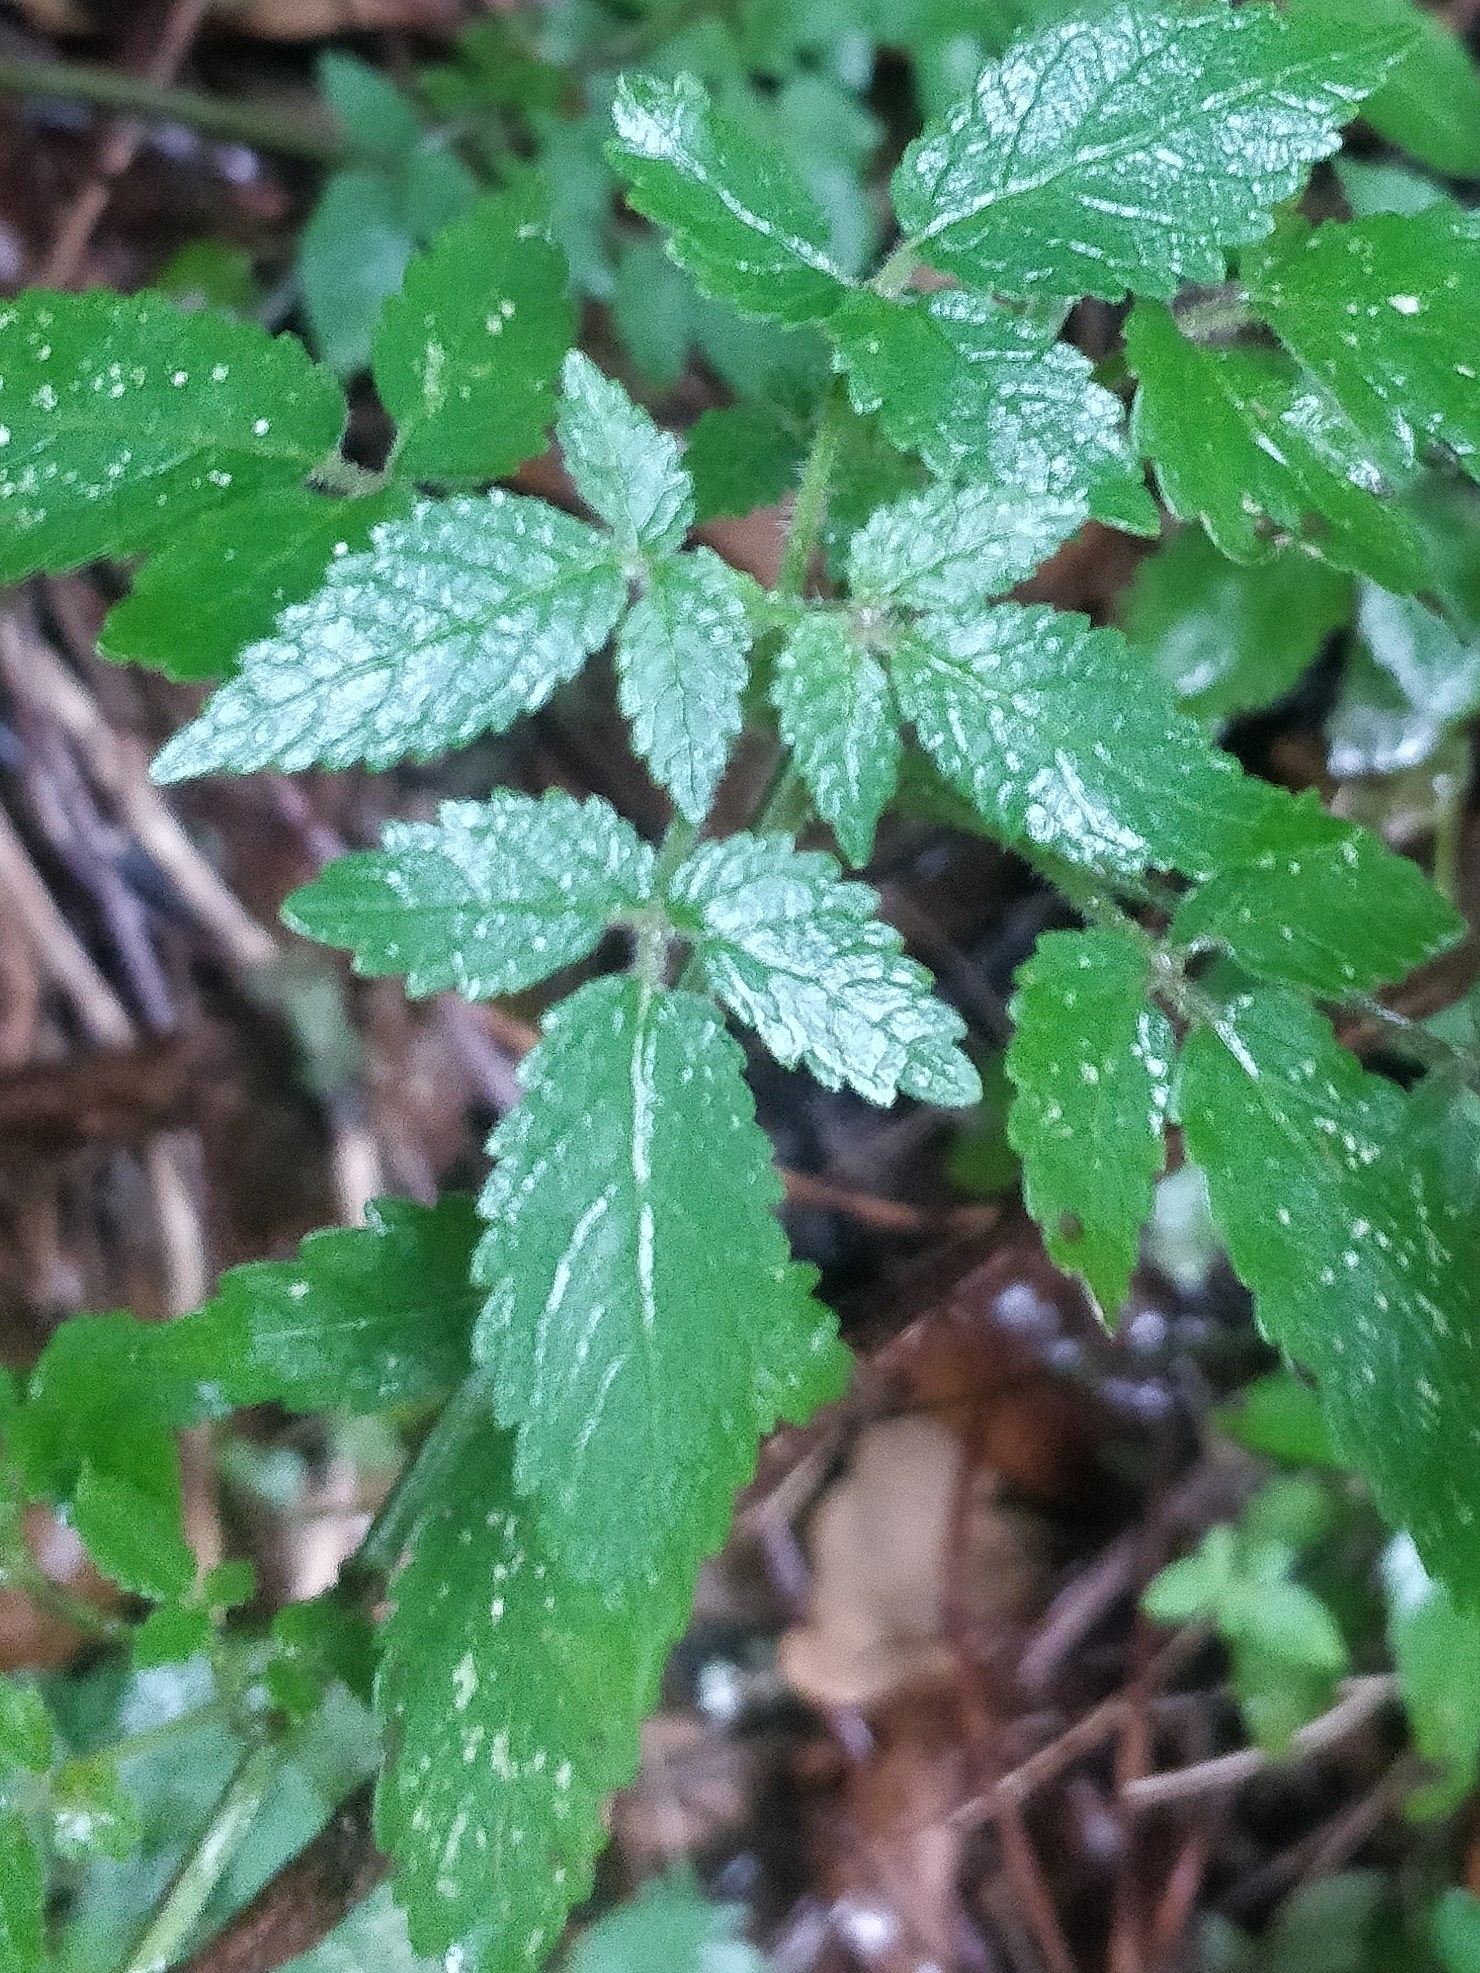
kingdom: Plantae
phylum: Tracheophyta
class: Magnoliopsida
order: Lamiales
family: Lamiaceae
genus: Cedronella
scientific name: Cedronella canariensis
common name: Canary islands balm
